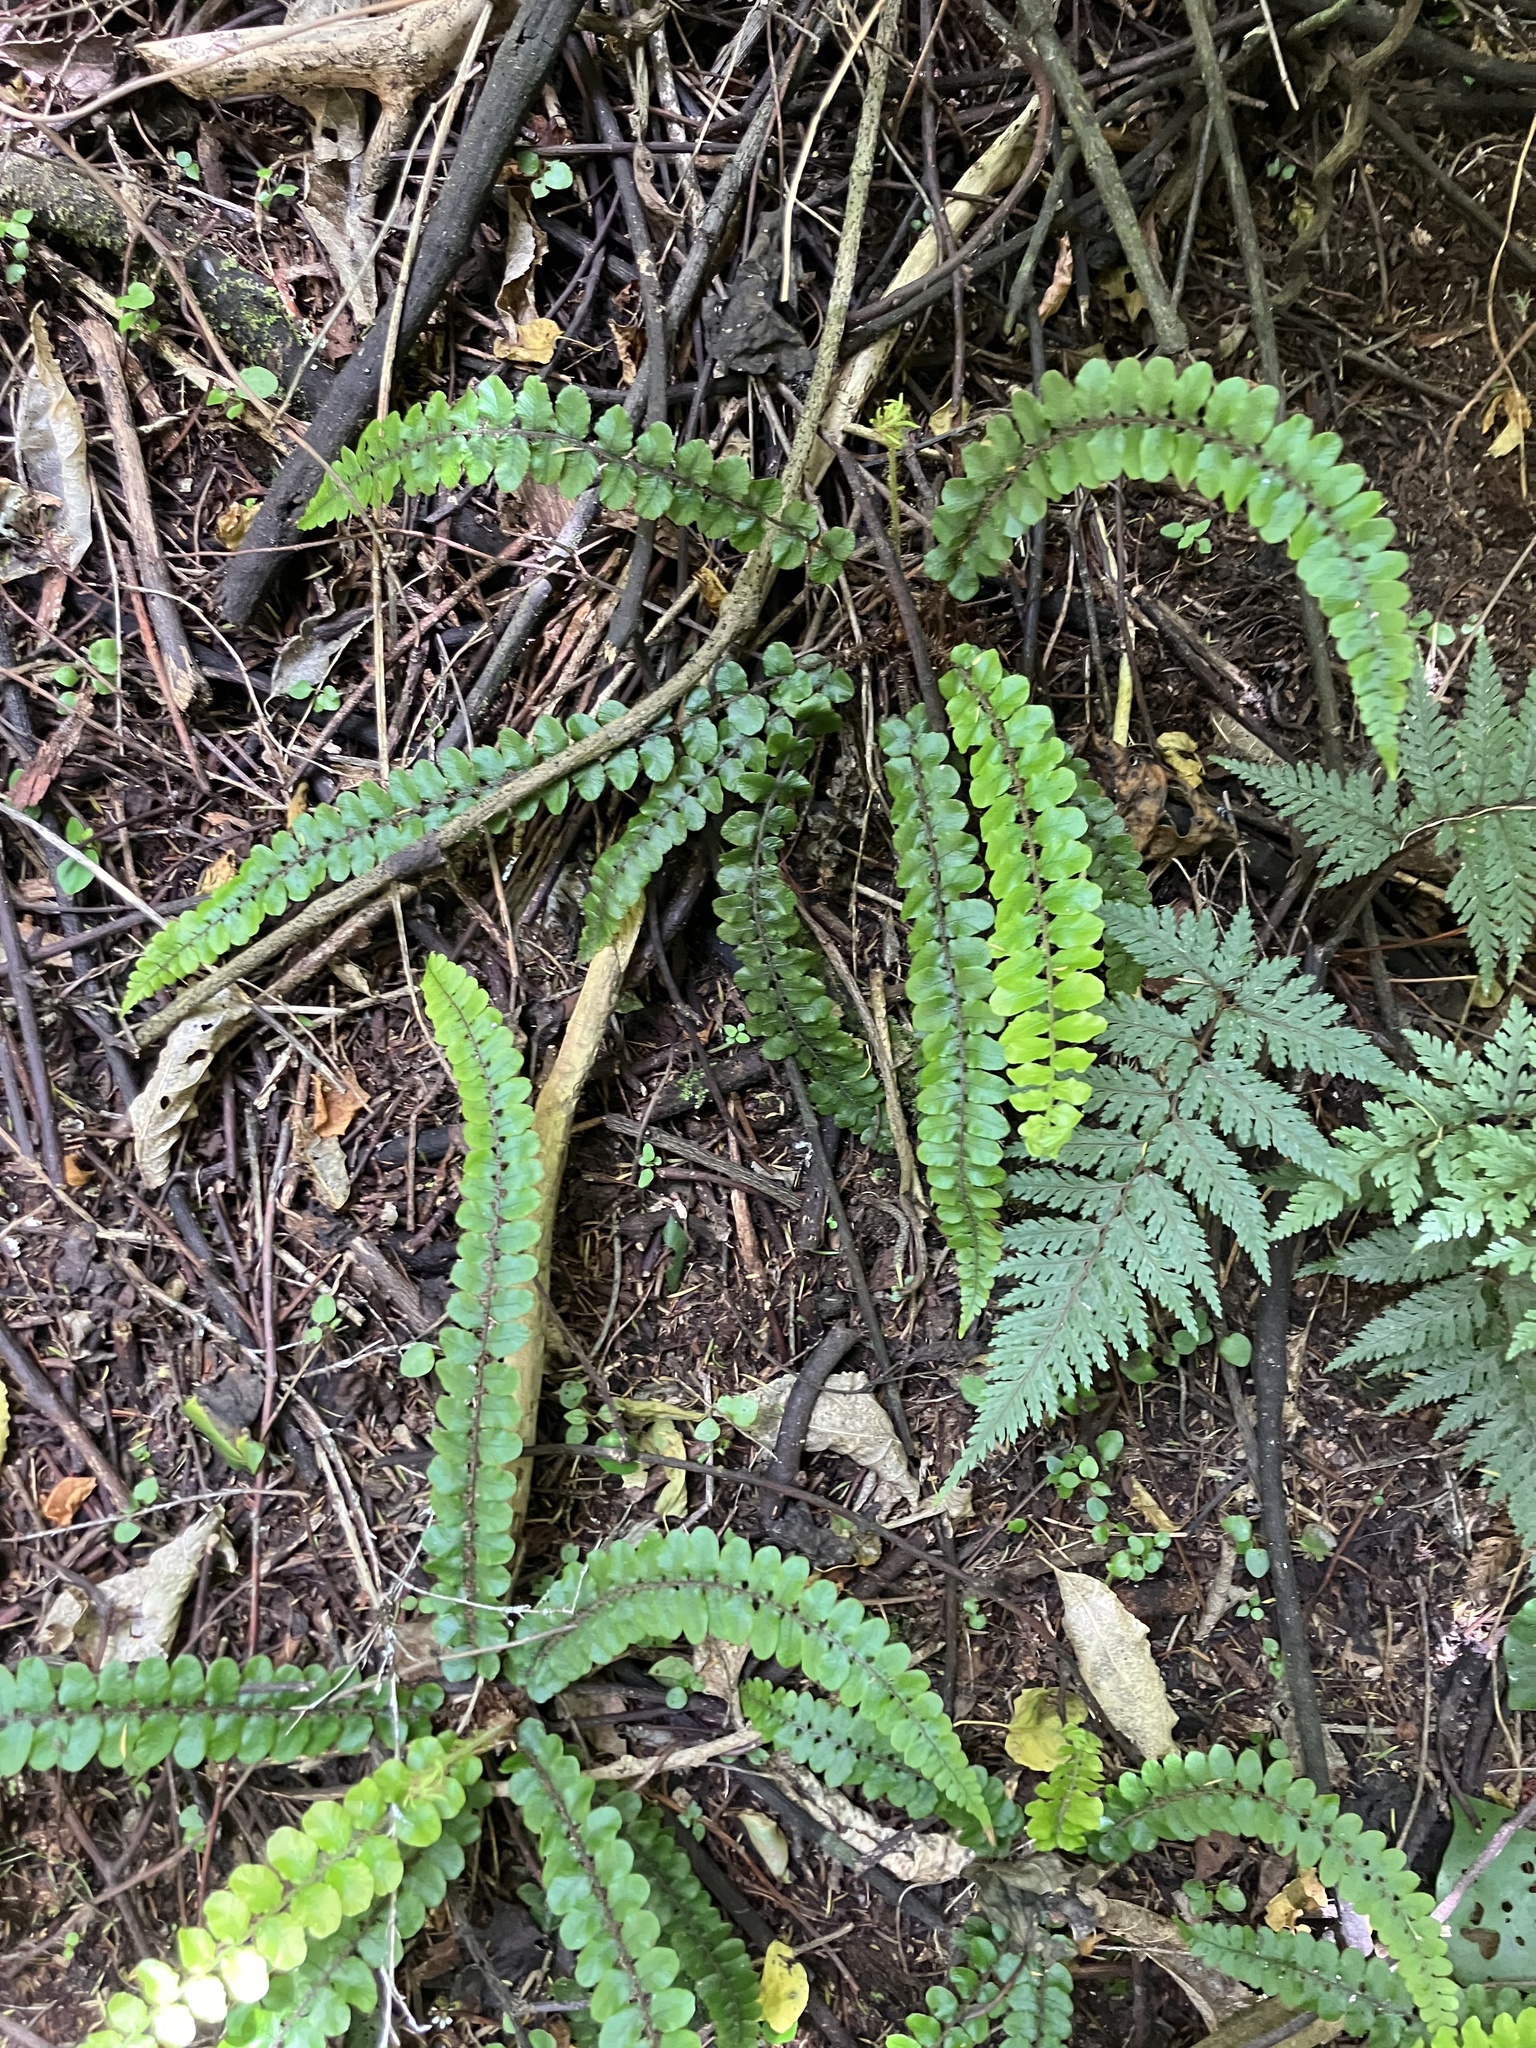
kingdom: Plantae
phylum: Tracheophyta
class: Polypodiopsida
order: Polypodiales
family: Blechnaceae
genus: Cranfillia
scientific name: Cranfillia fluviatilis
